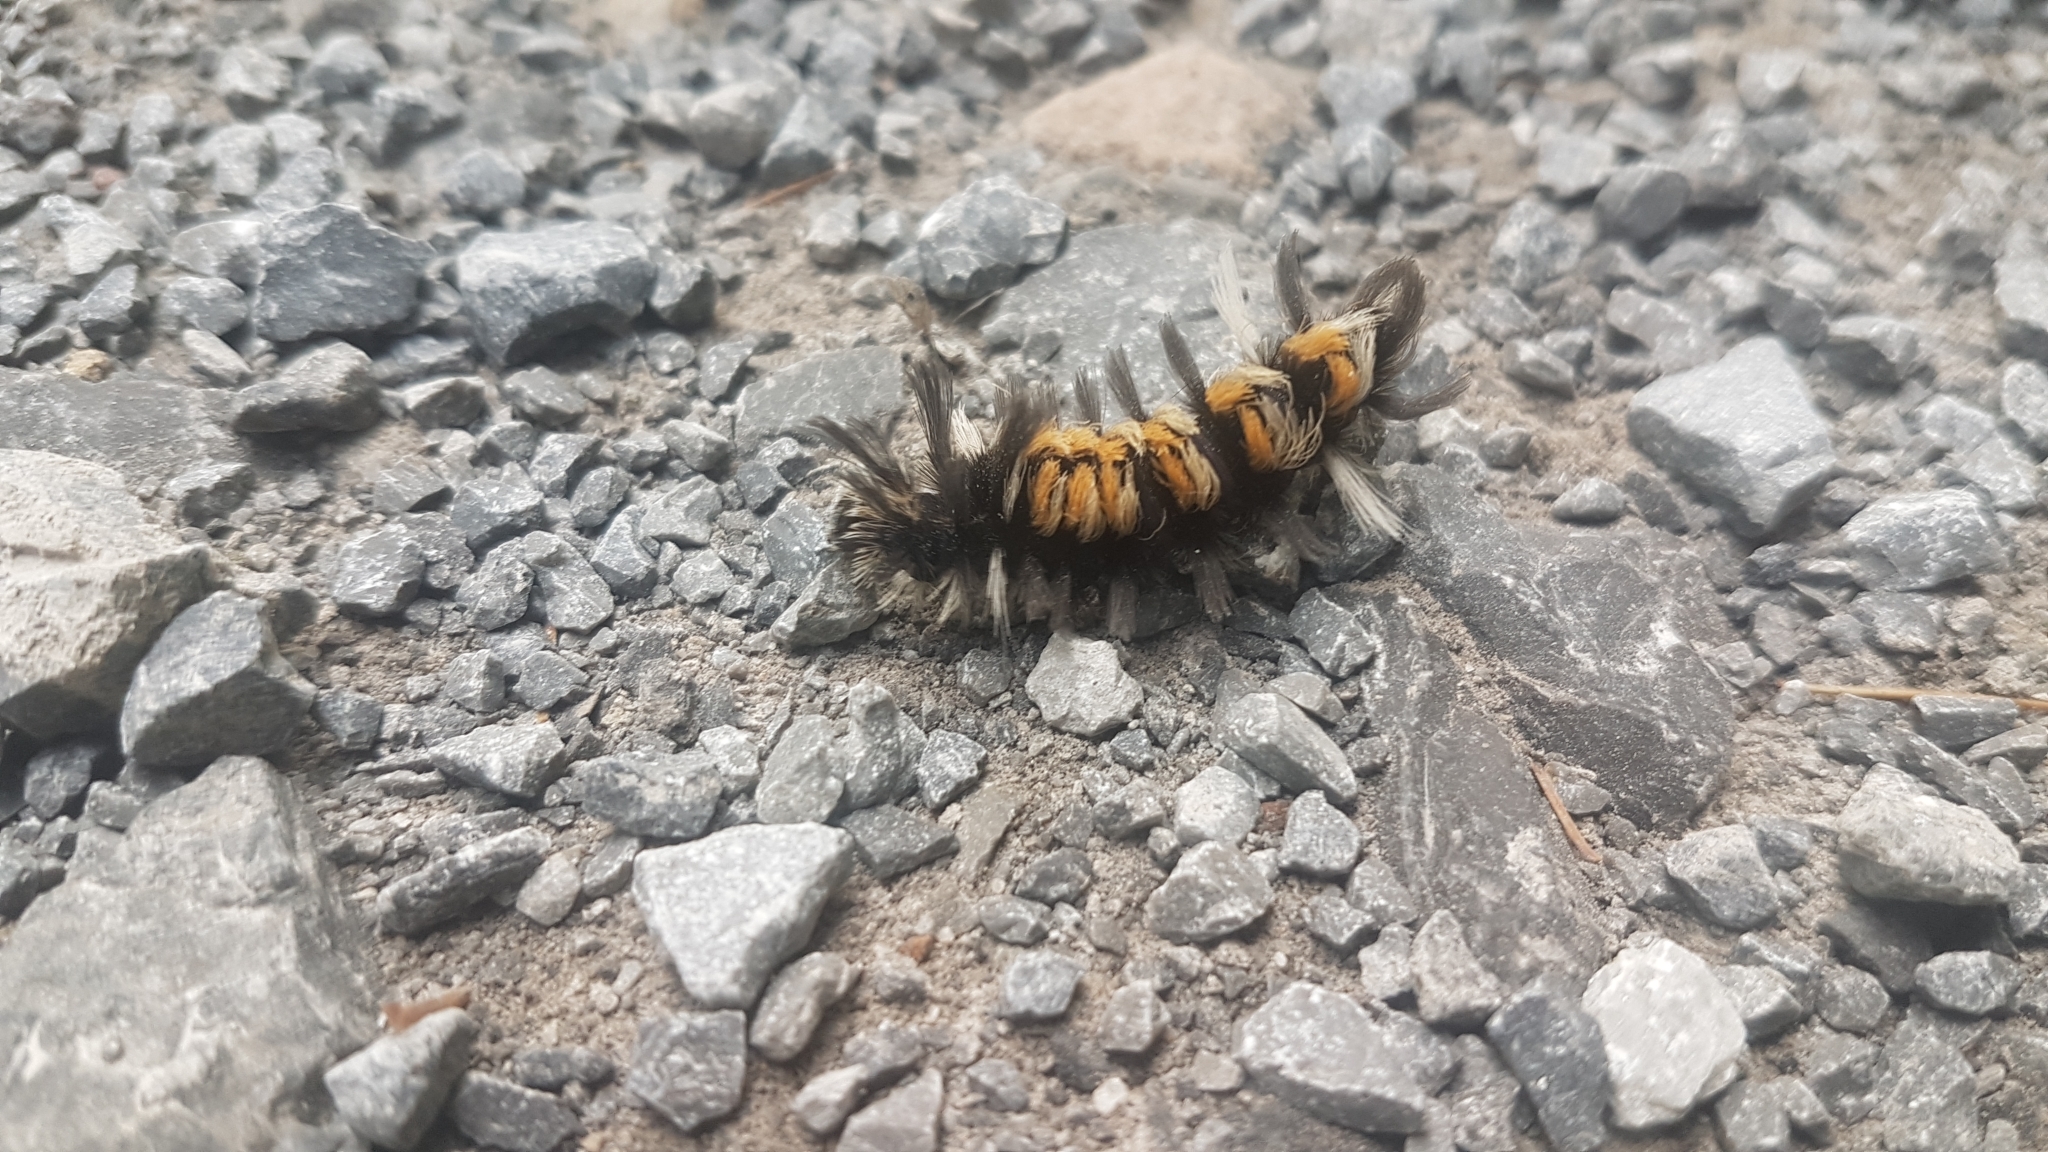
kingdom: Animalia
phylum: Arthropoda
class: Insecta
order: Lepidoptera
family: Erebidae
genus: Euchaetes
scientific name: Euchaetes egle
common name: Milkweed tussock moth
